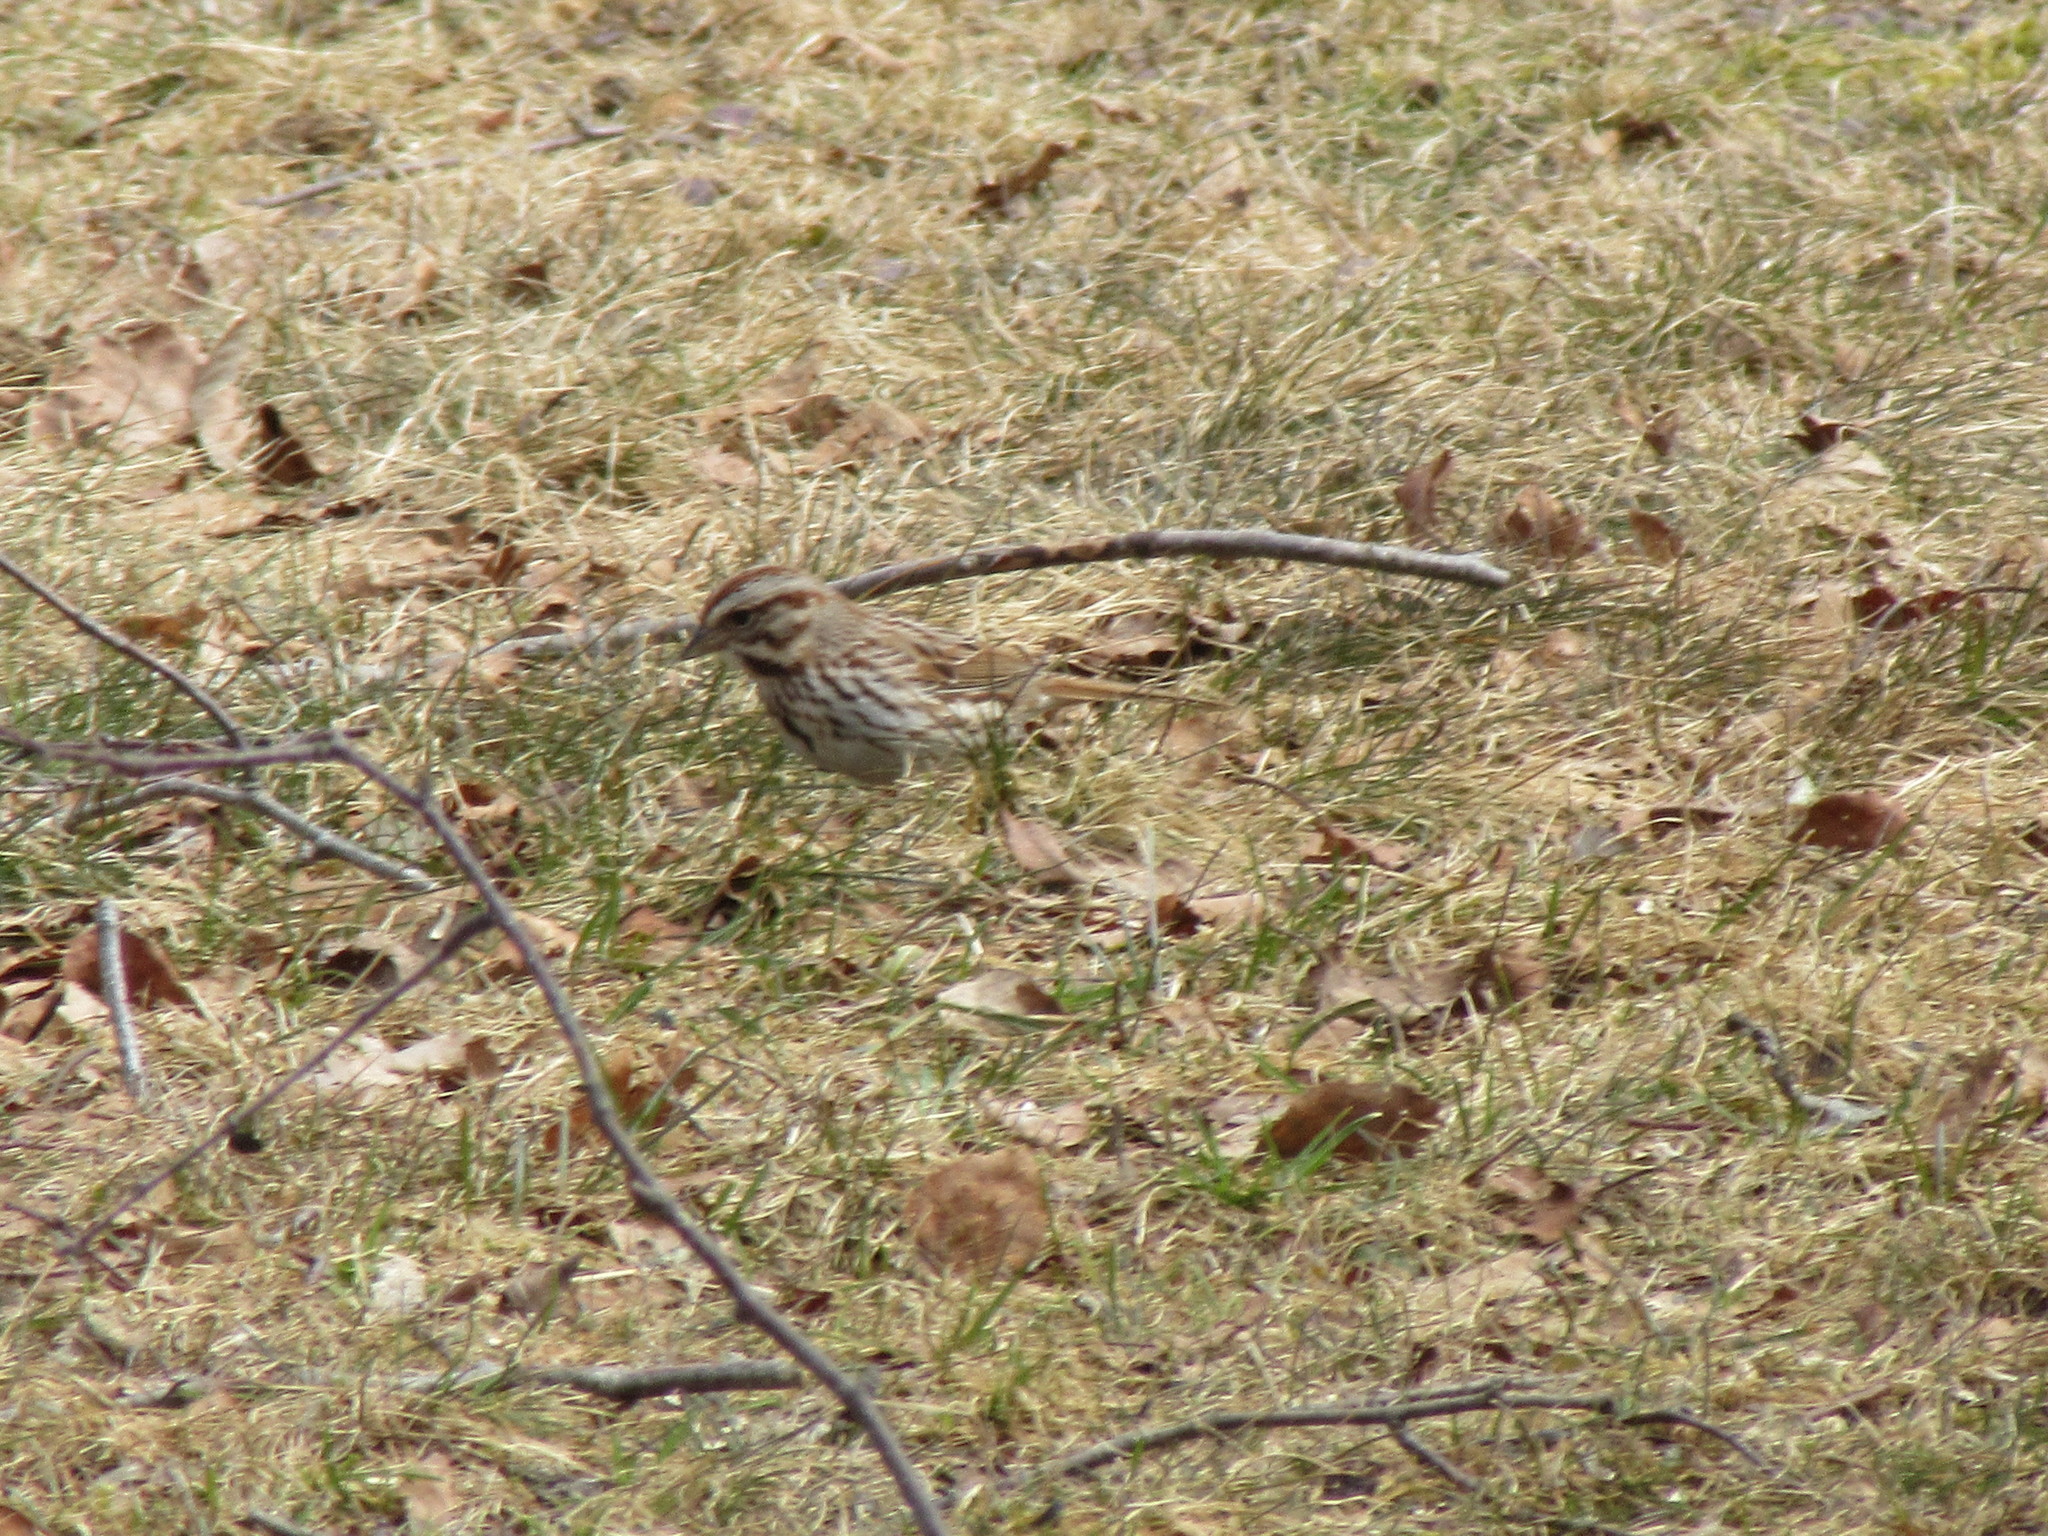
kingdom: Animalia
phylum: Chordata
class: Aves
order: Passeriformes
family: Passerellidae
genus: Melospiza
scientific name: Melospiza melodia
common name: Song sparrow
